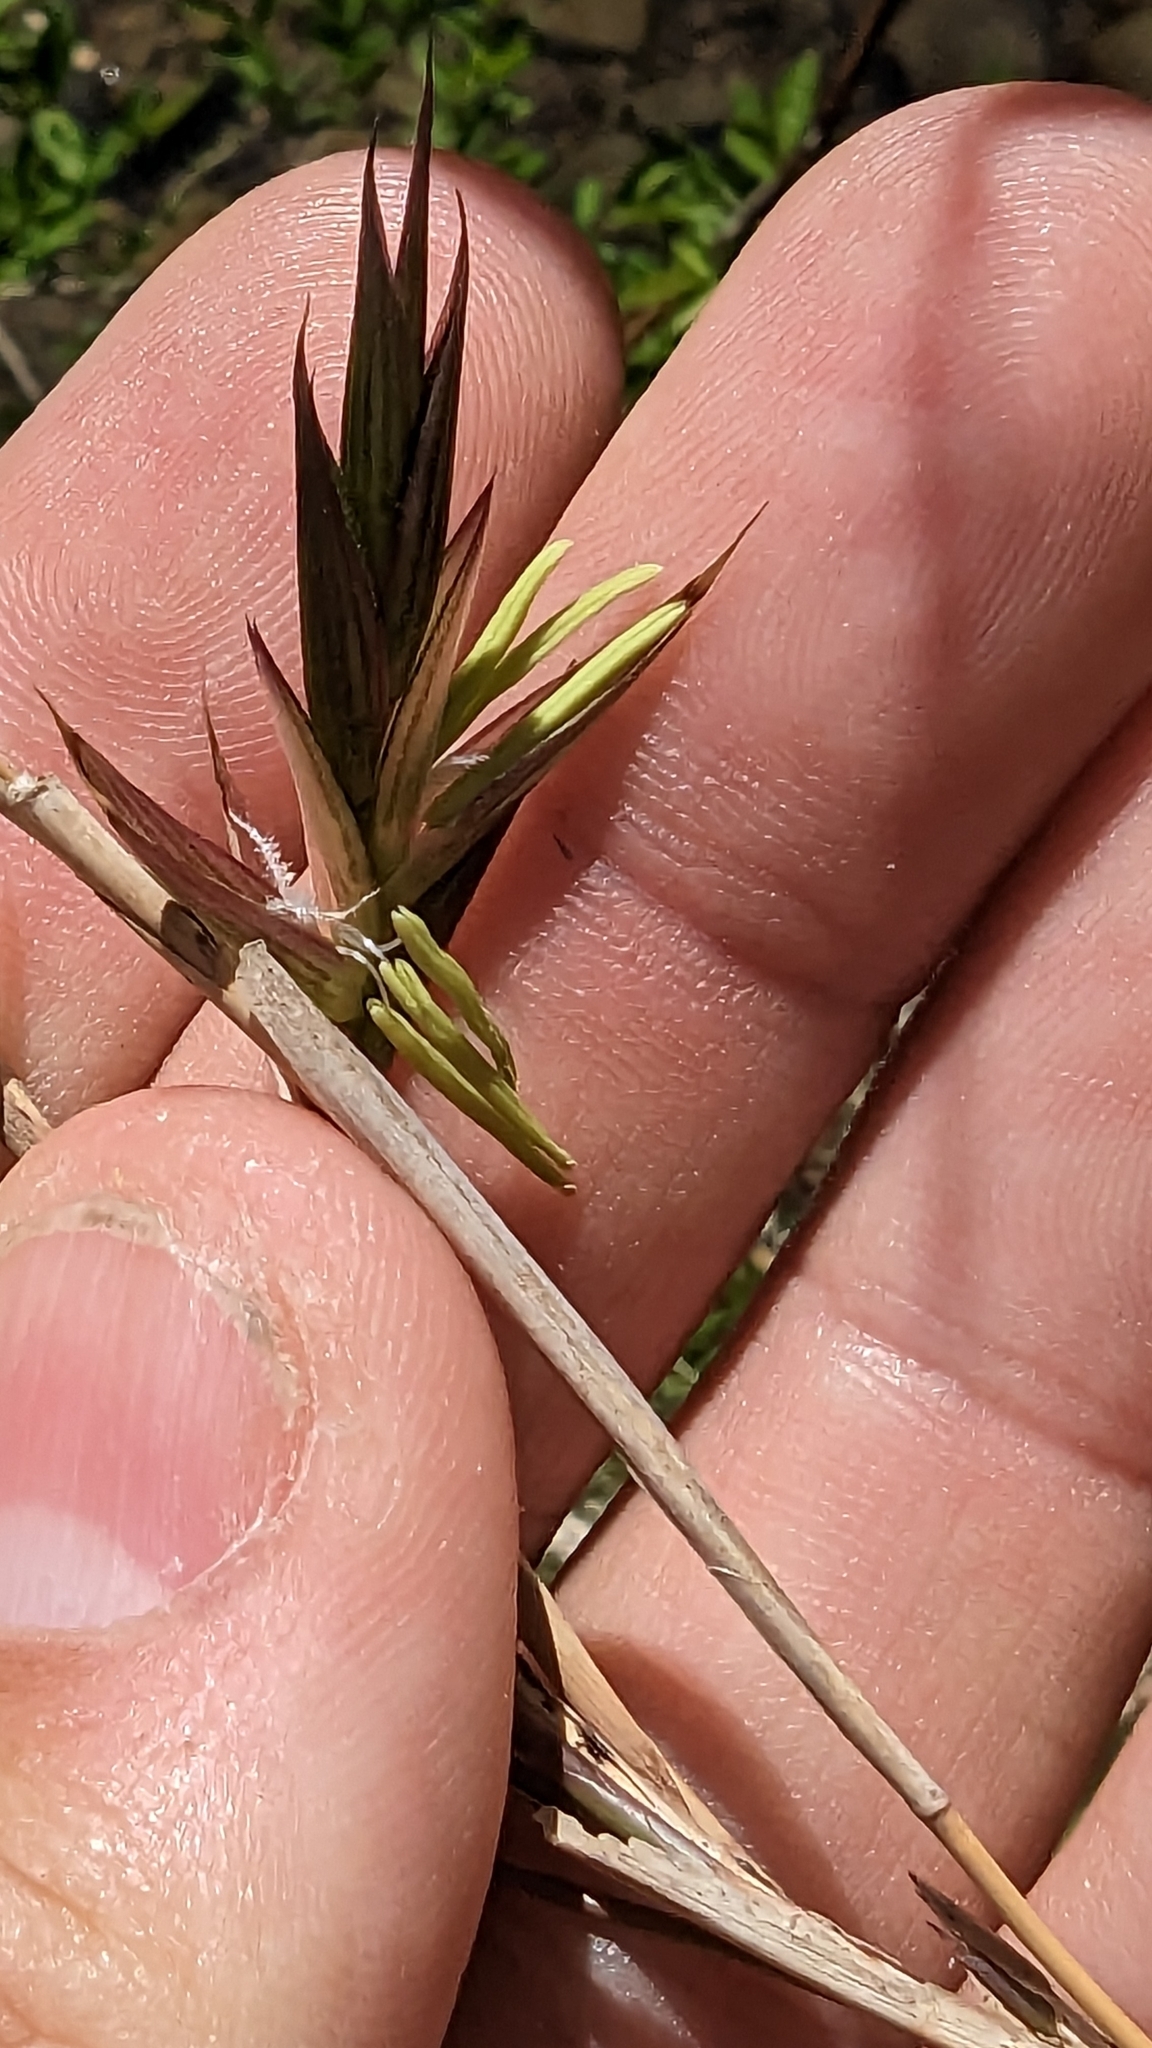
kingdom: Plantae
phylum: Tracheophyta
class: Liliopsida
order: Poales
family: Poaceae
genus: Arundinaria
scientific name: Arundinaria gigantea
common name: Giant cane
